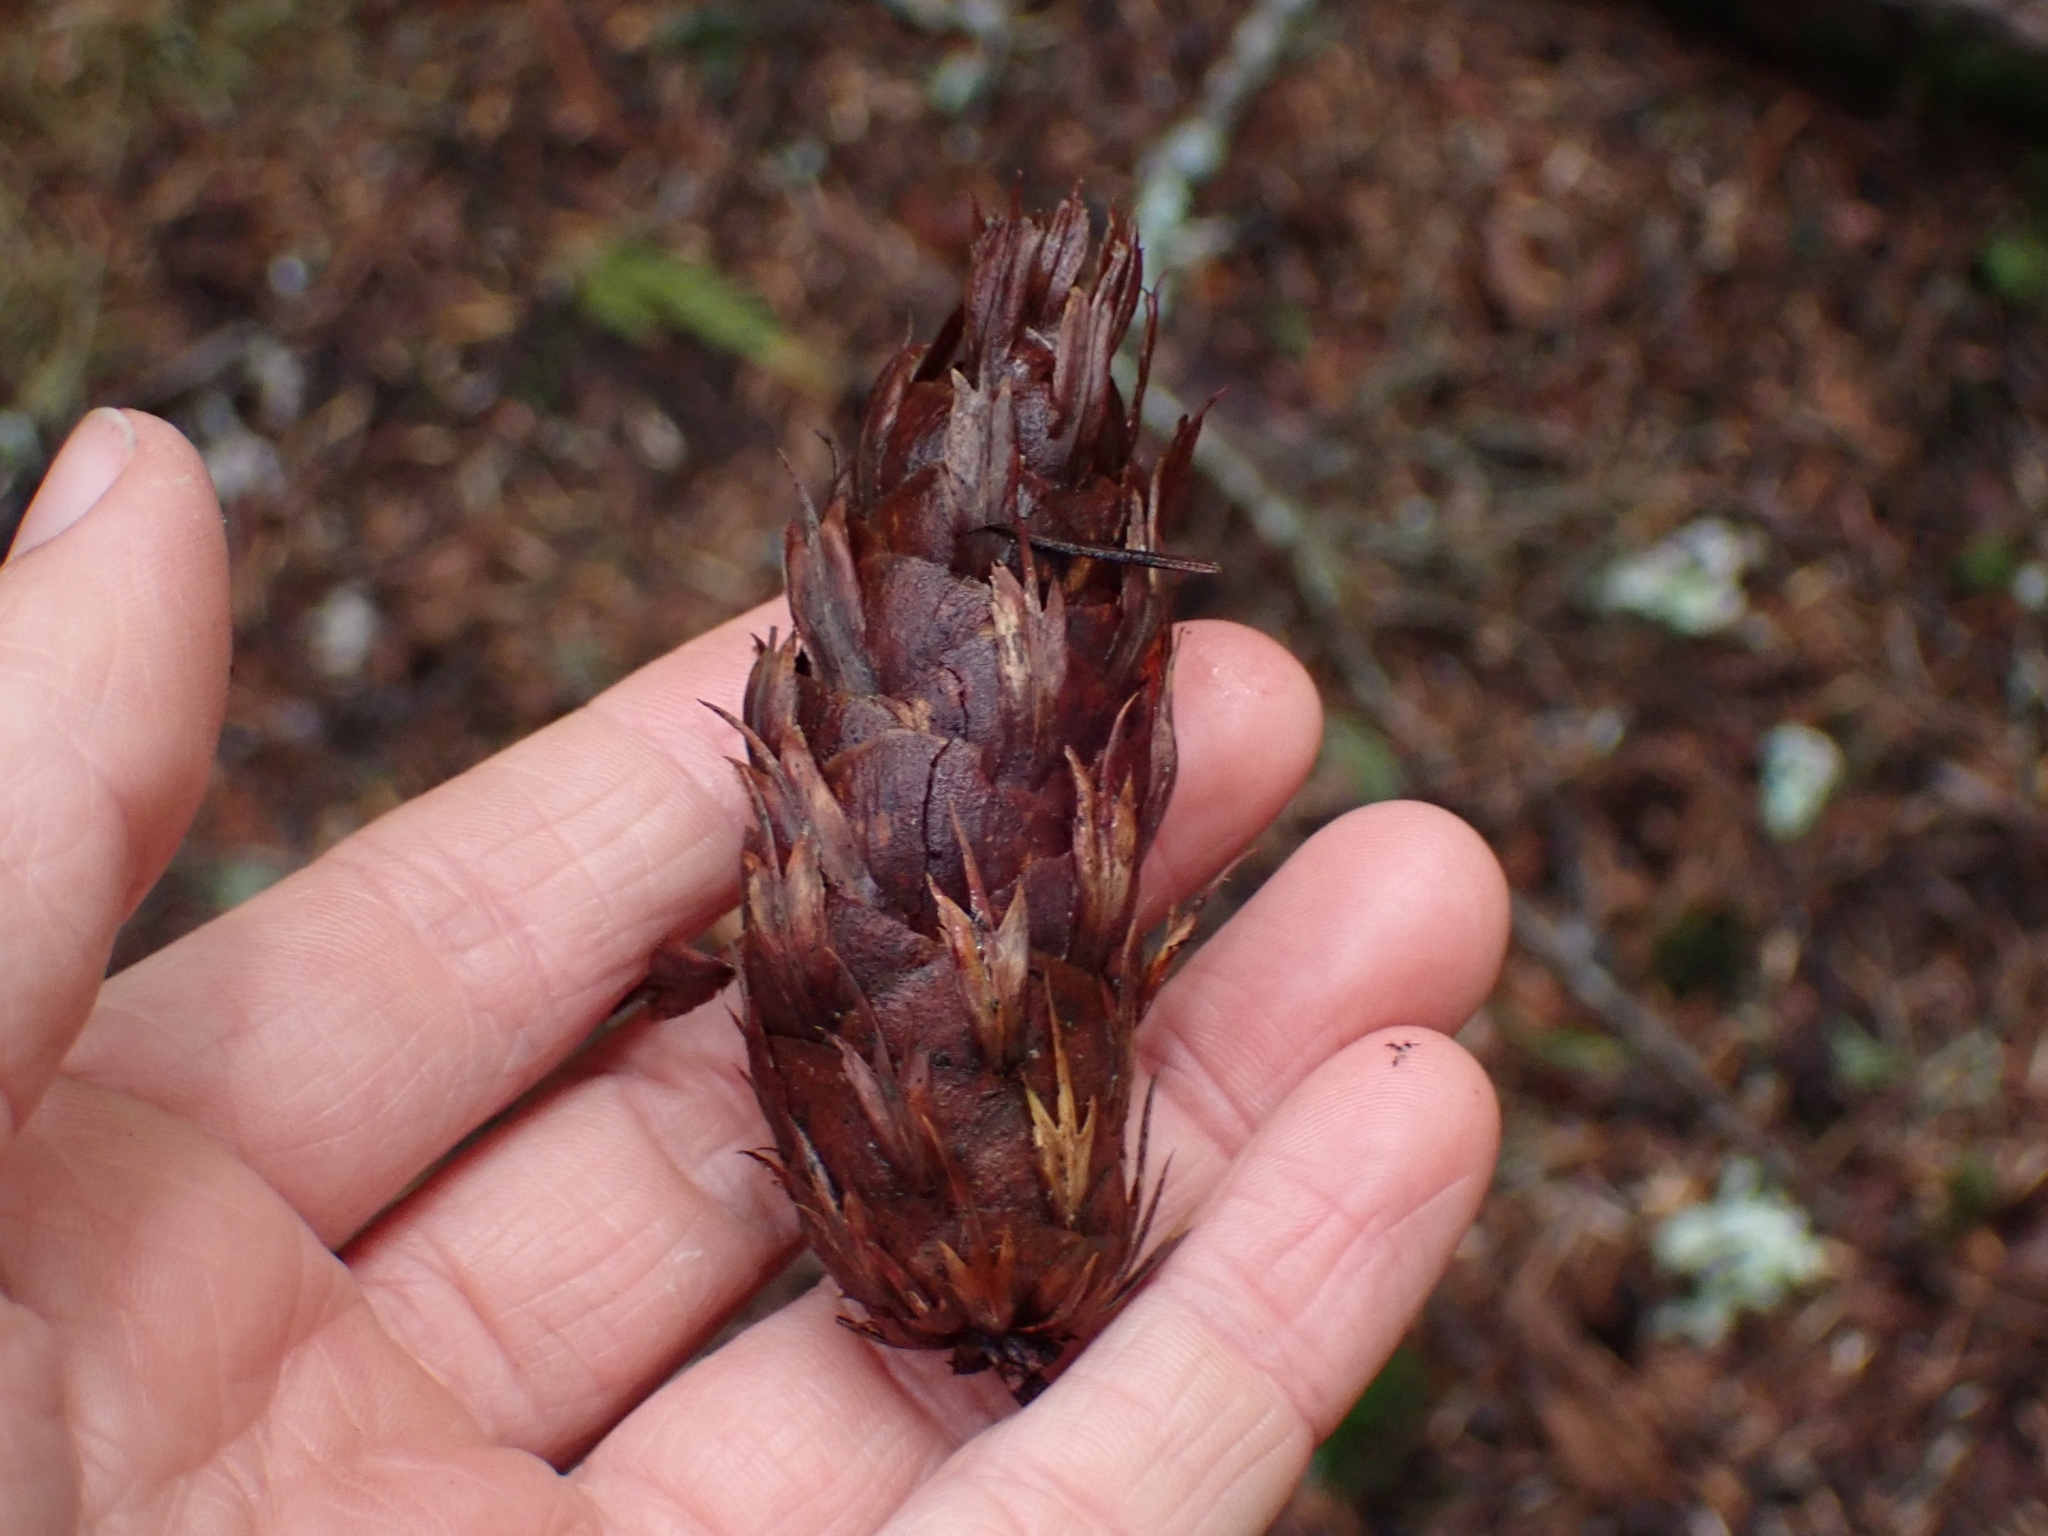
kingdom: Plantae
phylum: Tracheophyta
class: Pinopsida
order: Pinales
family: Pinaceae
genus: Pseudotsuga
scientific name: Pseudotsuga menziesii
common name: Douglas fir
